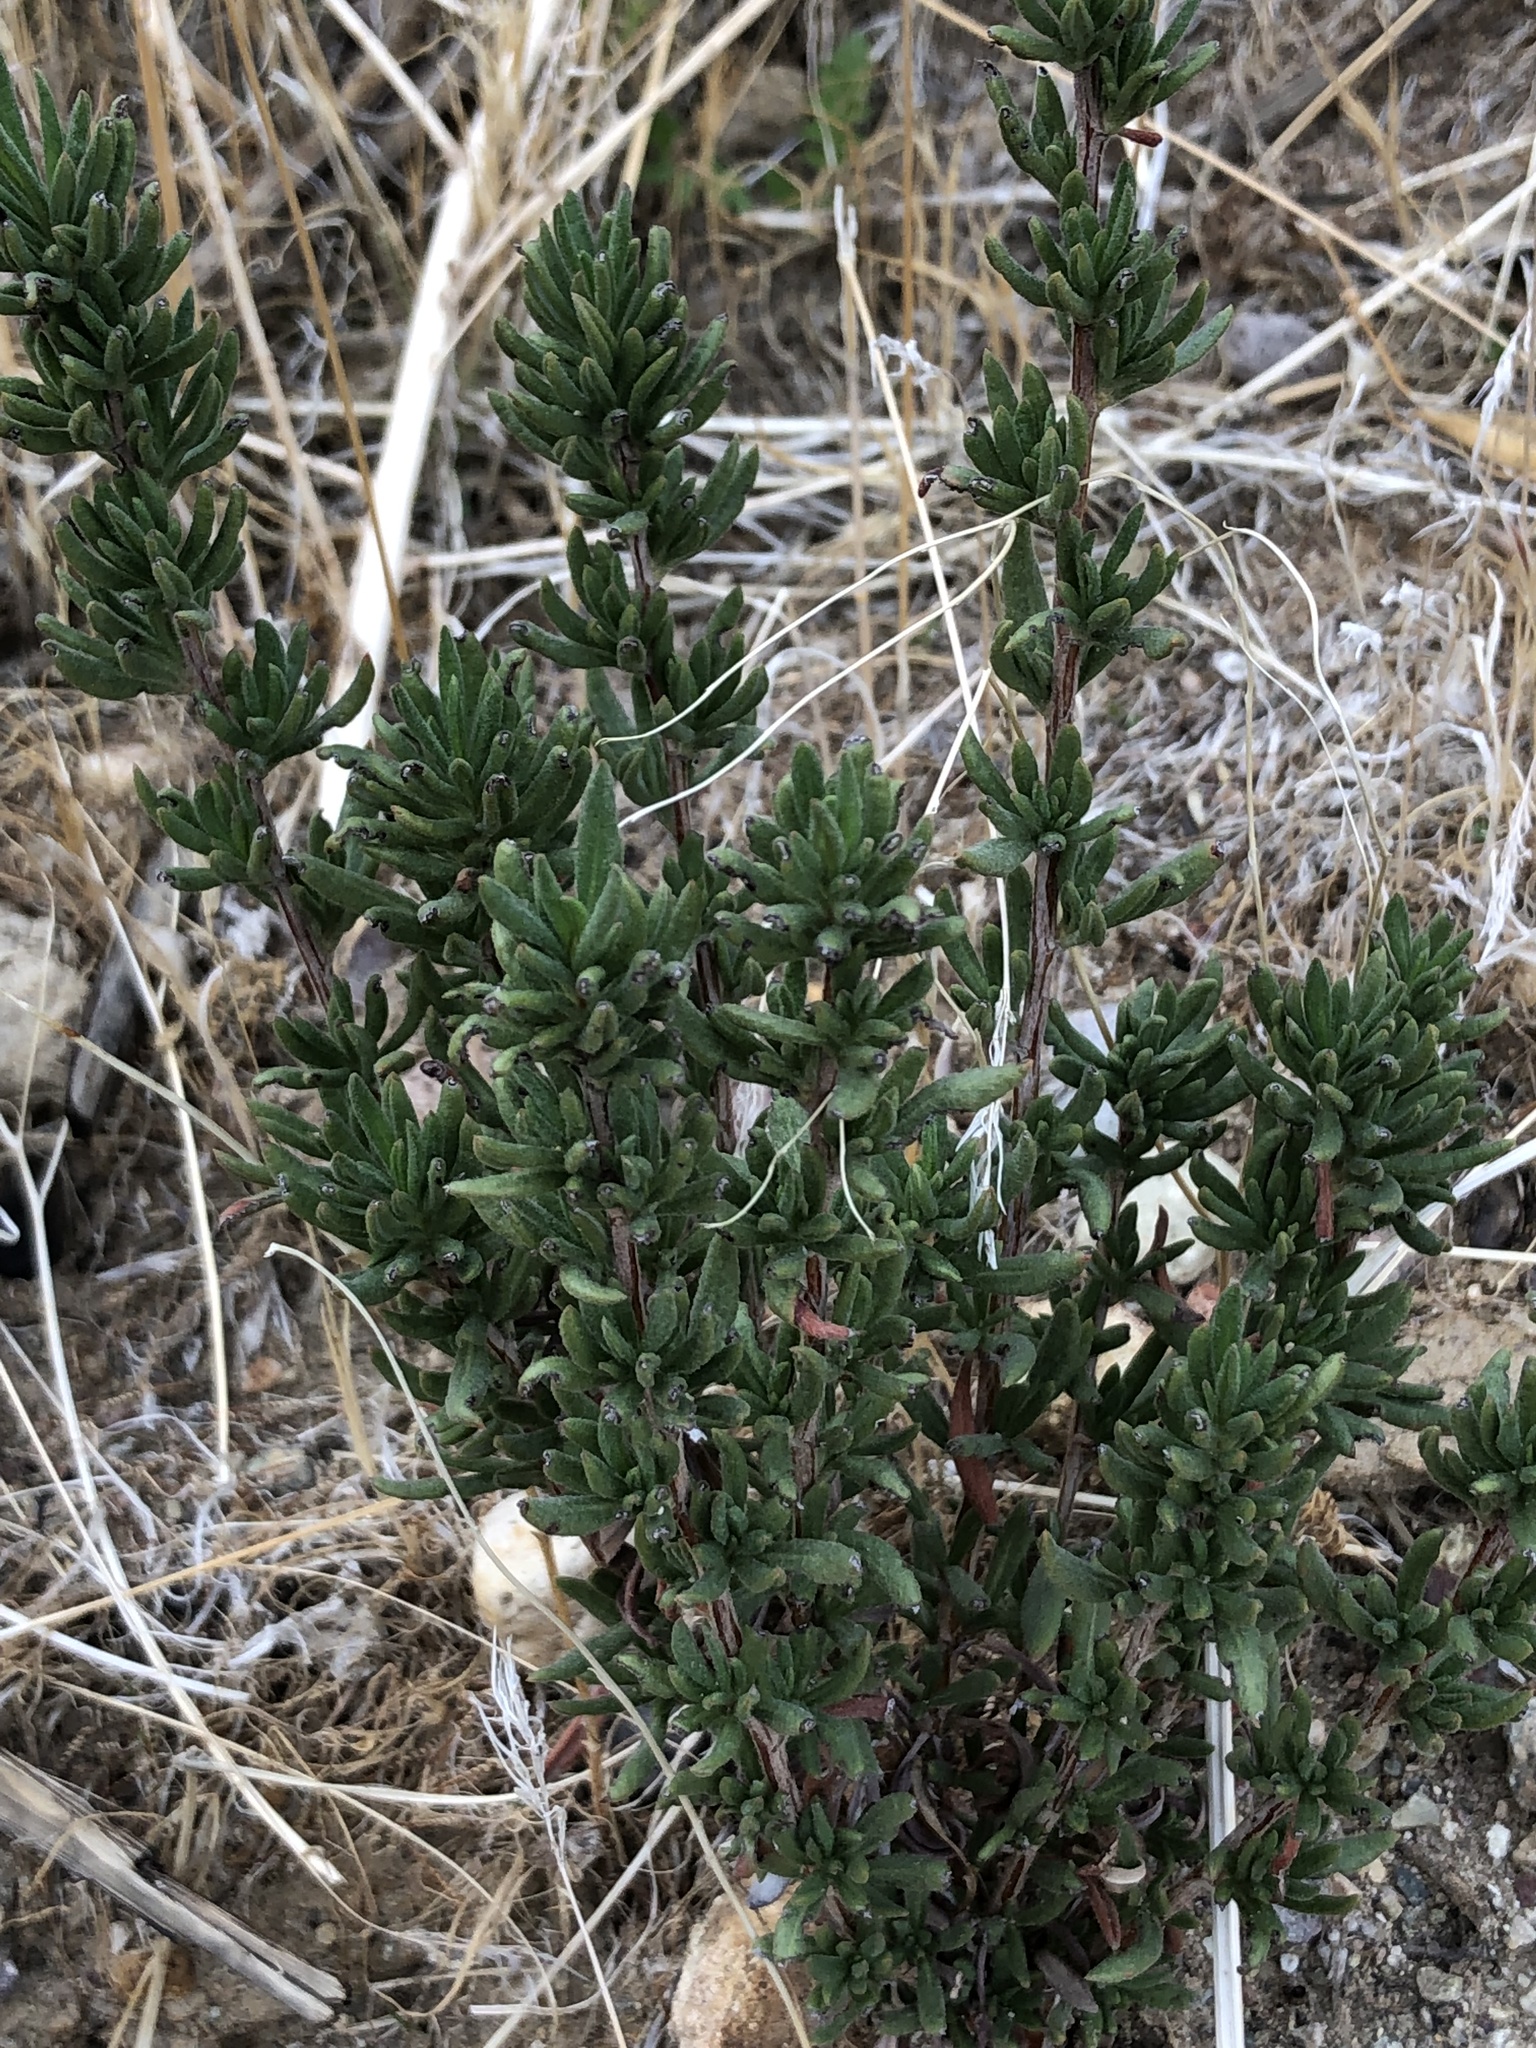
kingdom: Plantae
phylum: Tracheophyta
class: Magnoliopsida
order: Caryophyllales
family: Polygonaceae
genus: Eriogonum
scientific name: Eriogonum fasciculatum
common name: California wild buckwheat
